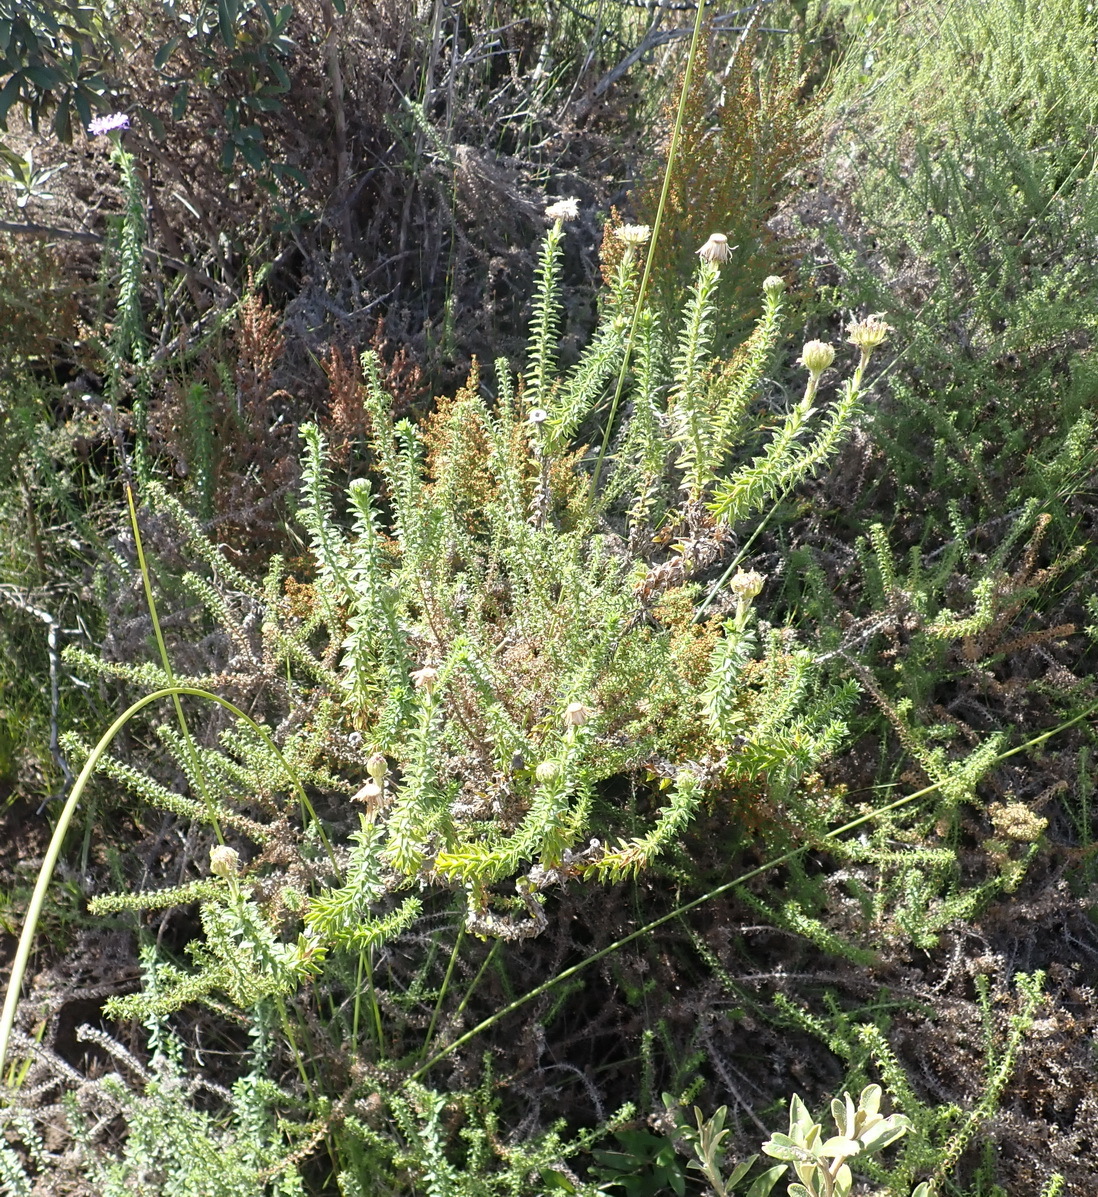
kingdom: Plantae
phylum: Tracheophyta
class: Magnoliopsida
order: Asterales
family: Asteraceae
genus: Felicia
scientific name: Felicia echinata
